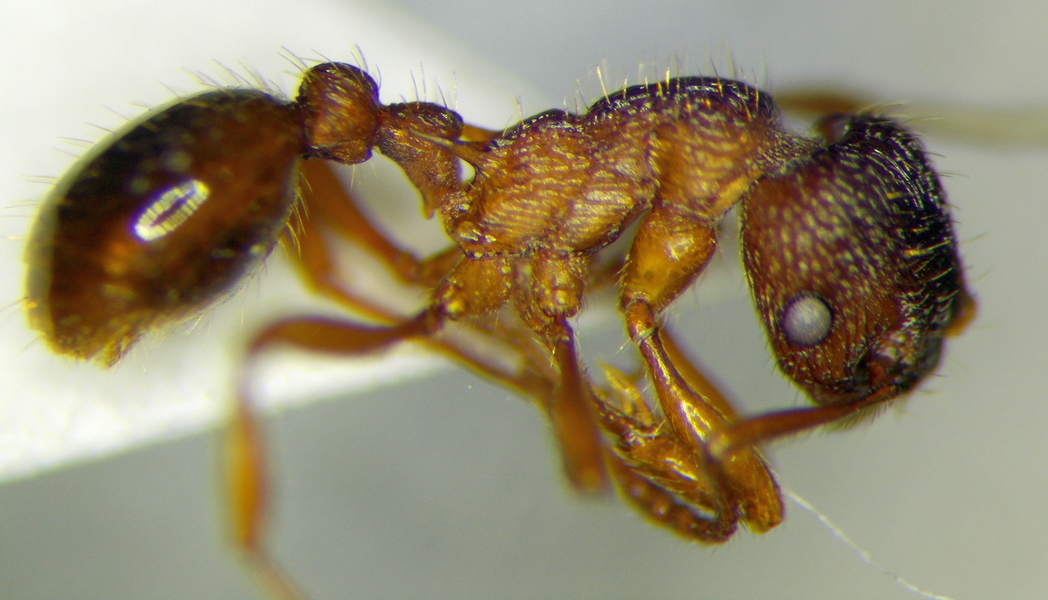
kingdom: Animalia
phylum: Arthropoda
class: Insecta
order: Hymenoptera
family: Formicidae
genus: Myrmica
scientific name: Myrmica sabuleti
